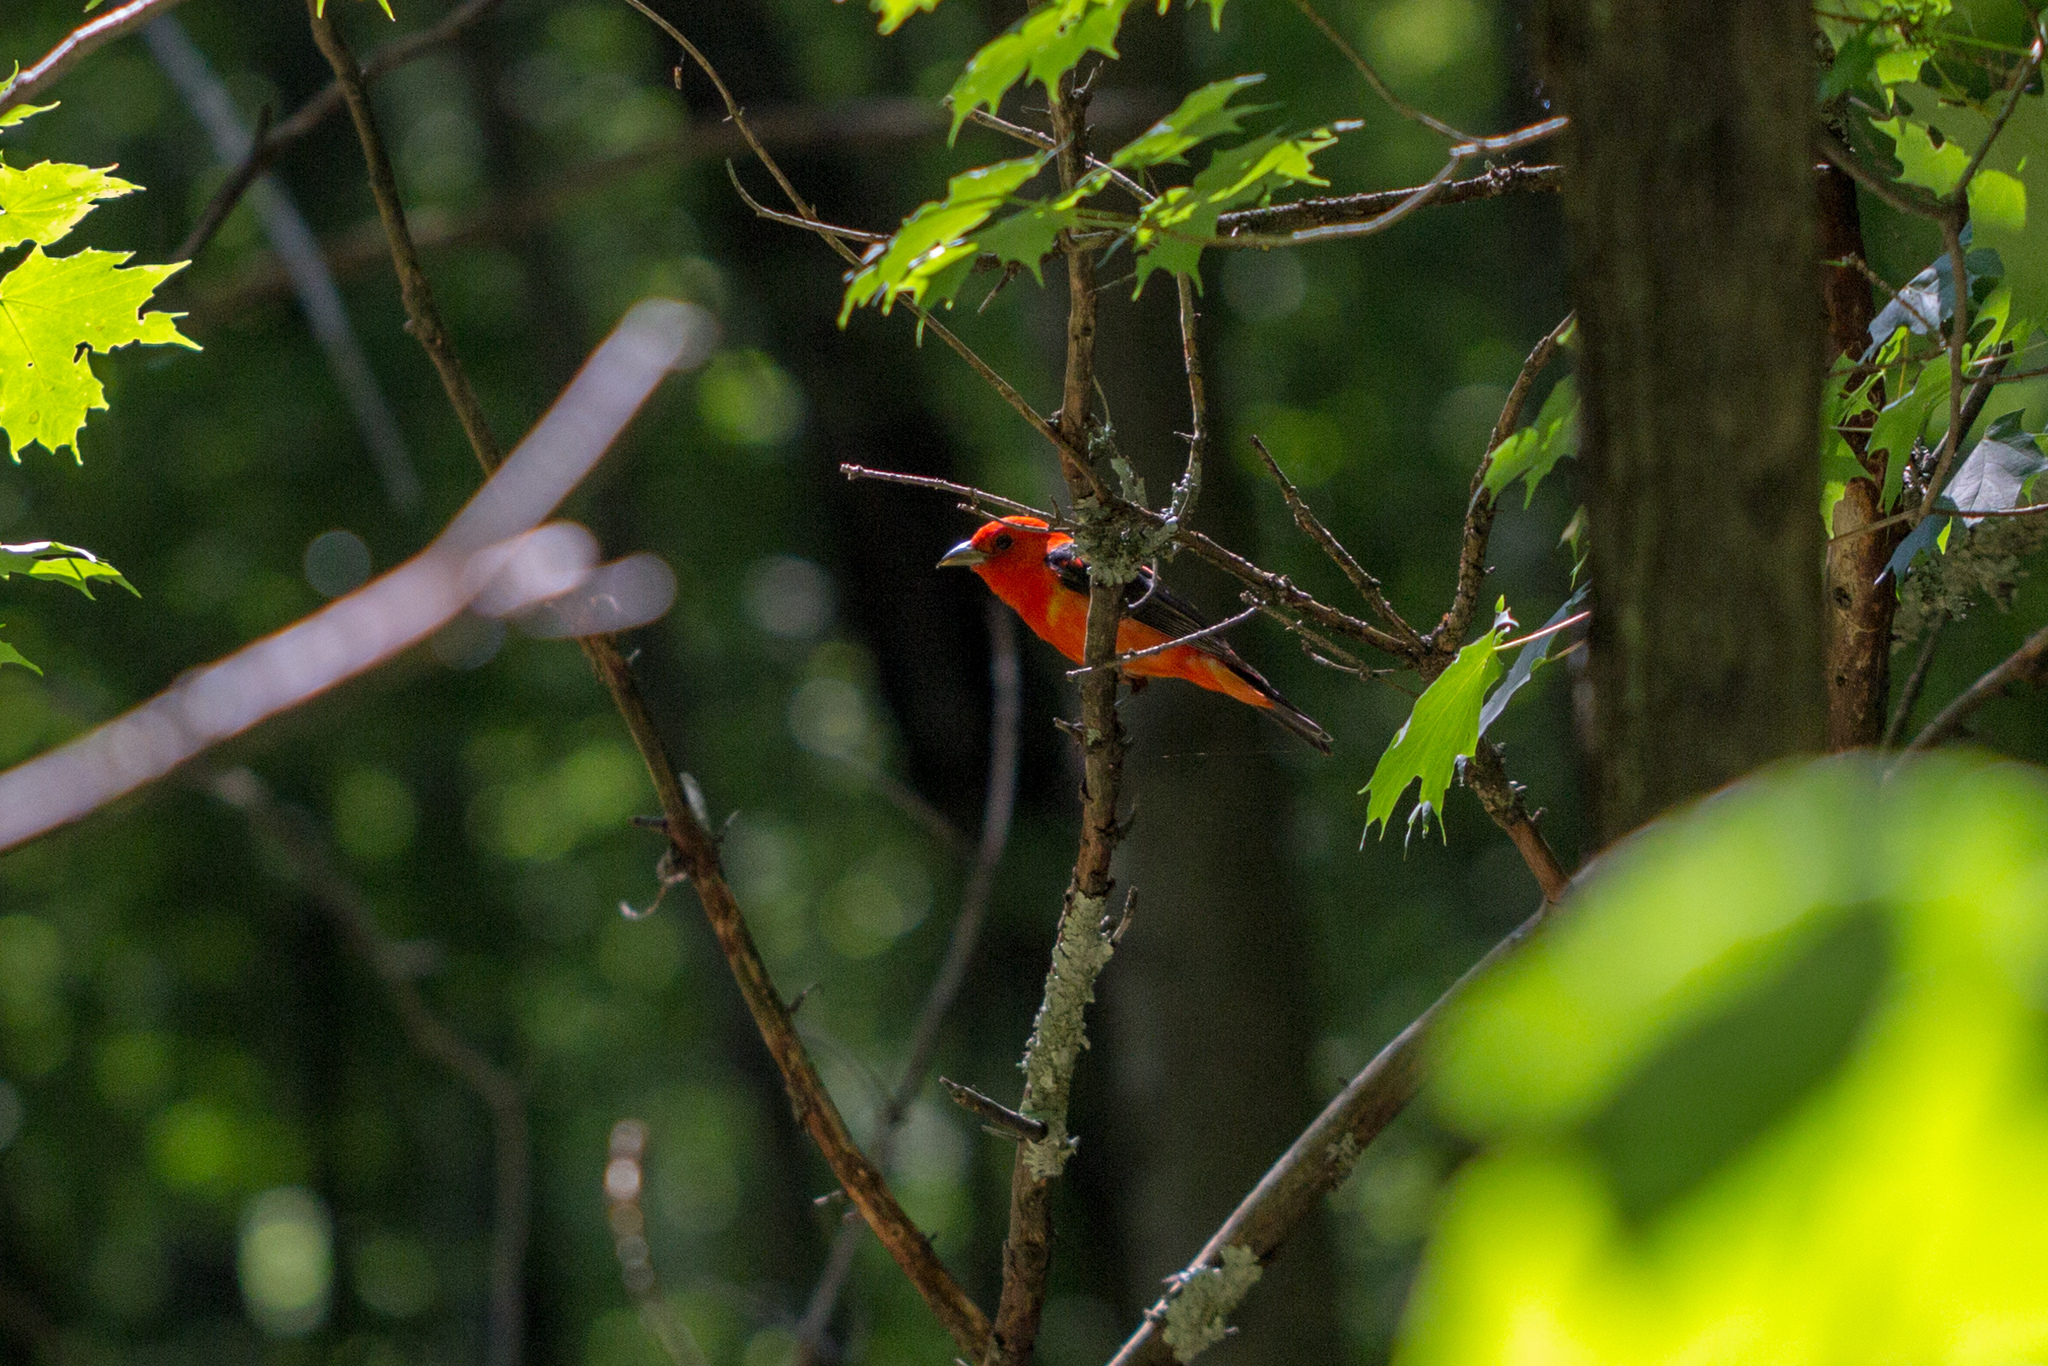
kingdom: Animalia
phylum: Chordata
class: Aves
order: Passeriformes
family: Cardinalidae
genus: Piranga
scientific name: Piranga olivacea
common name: Scarlet tanager
